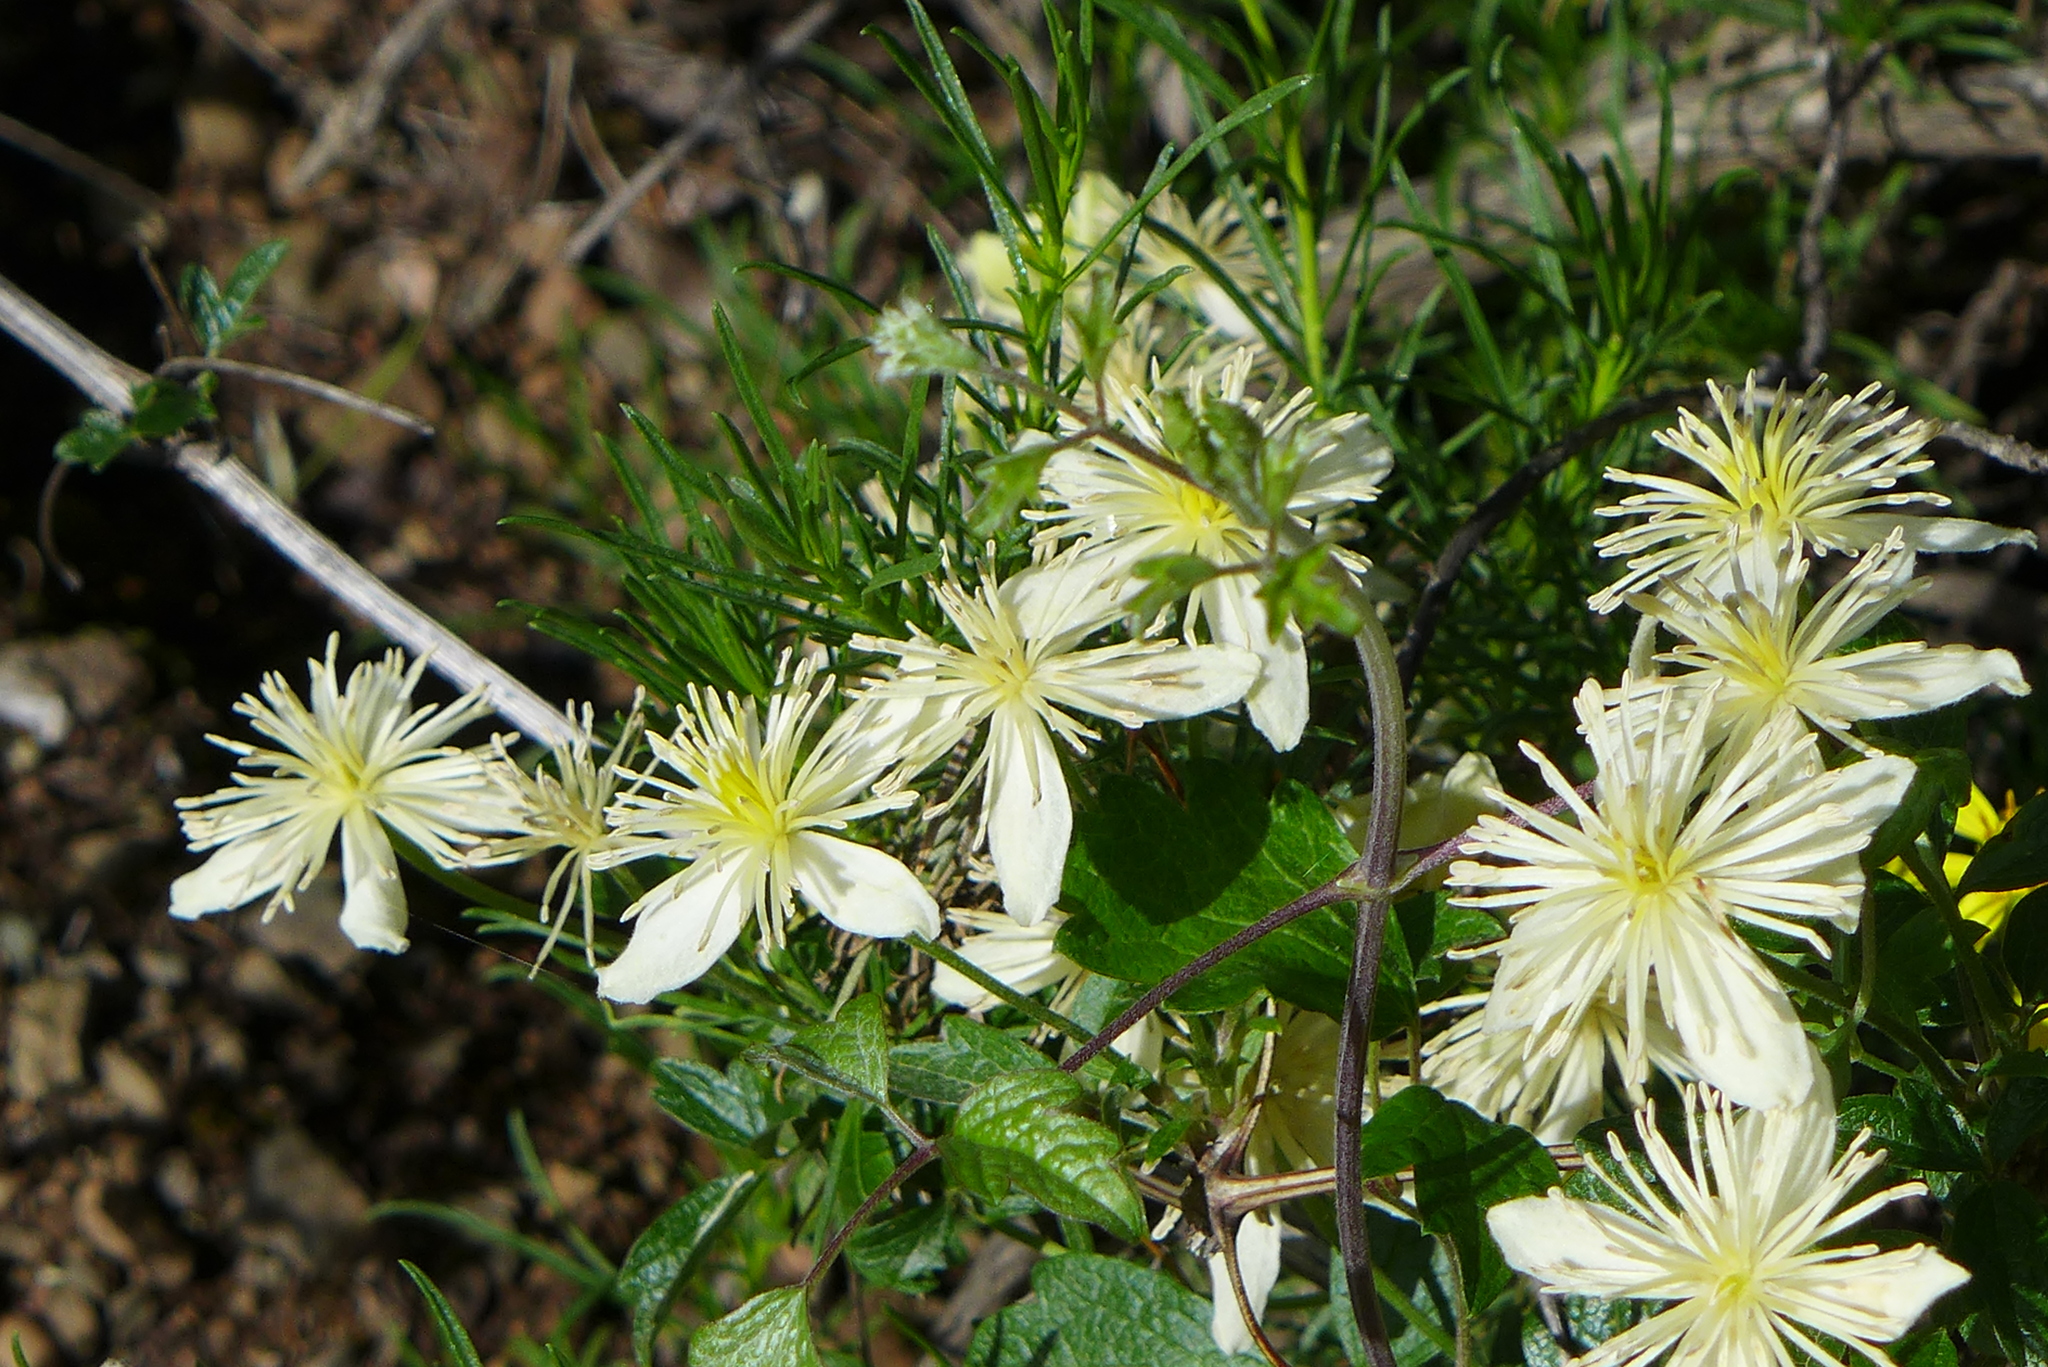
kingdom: Plantae
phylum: Tracheophyta
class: Magnoliopsida
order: Ranunculales
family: Ranunculaceae
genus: Clematis
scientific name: Clematis lasiantha
